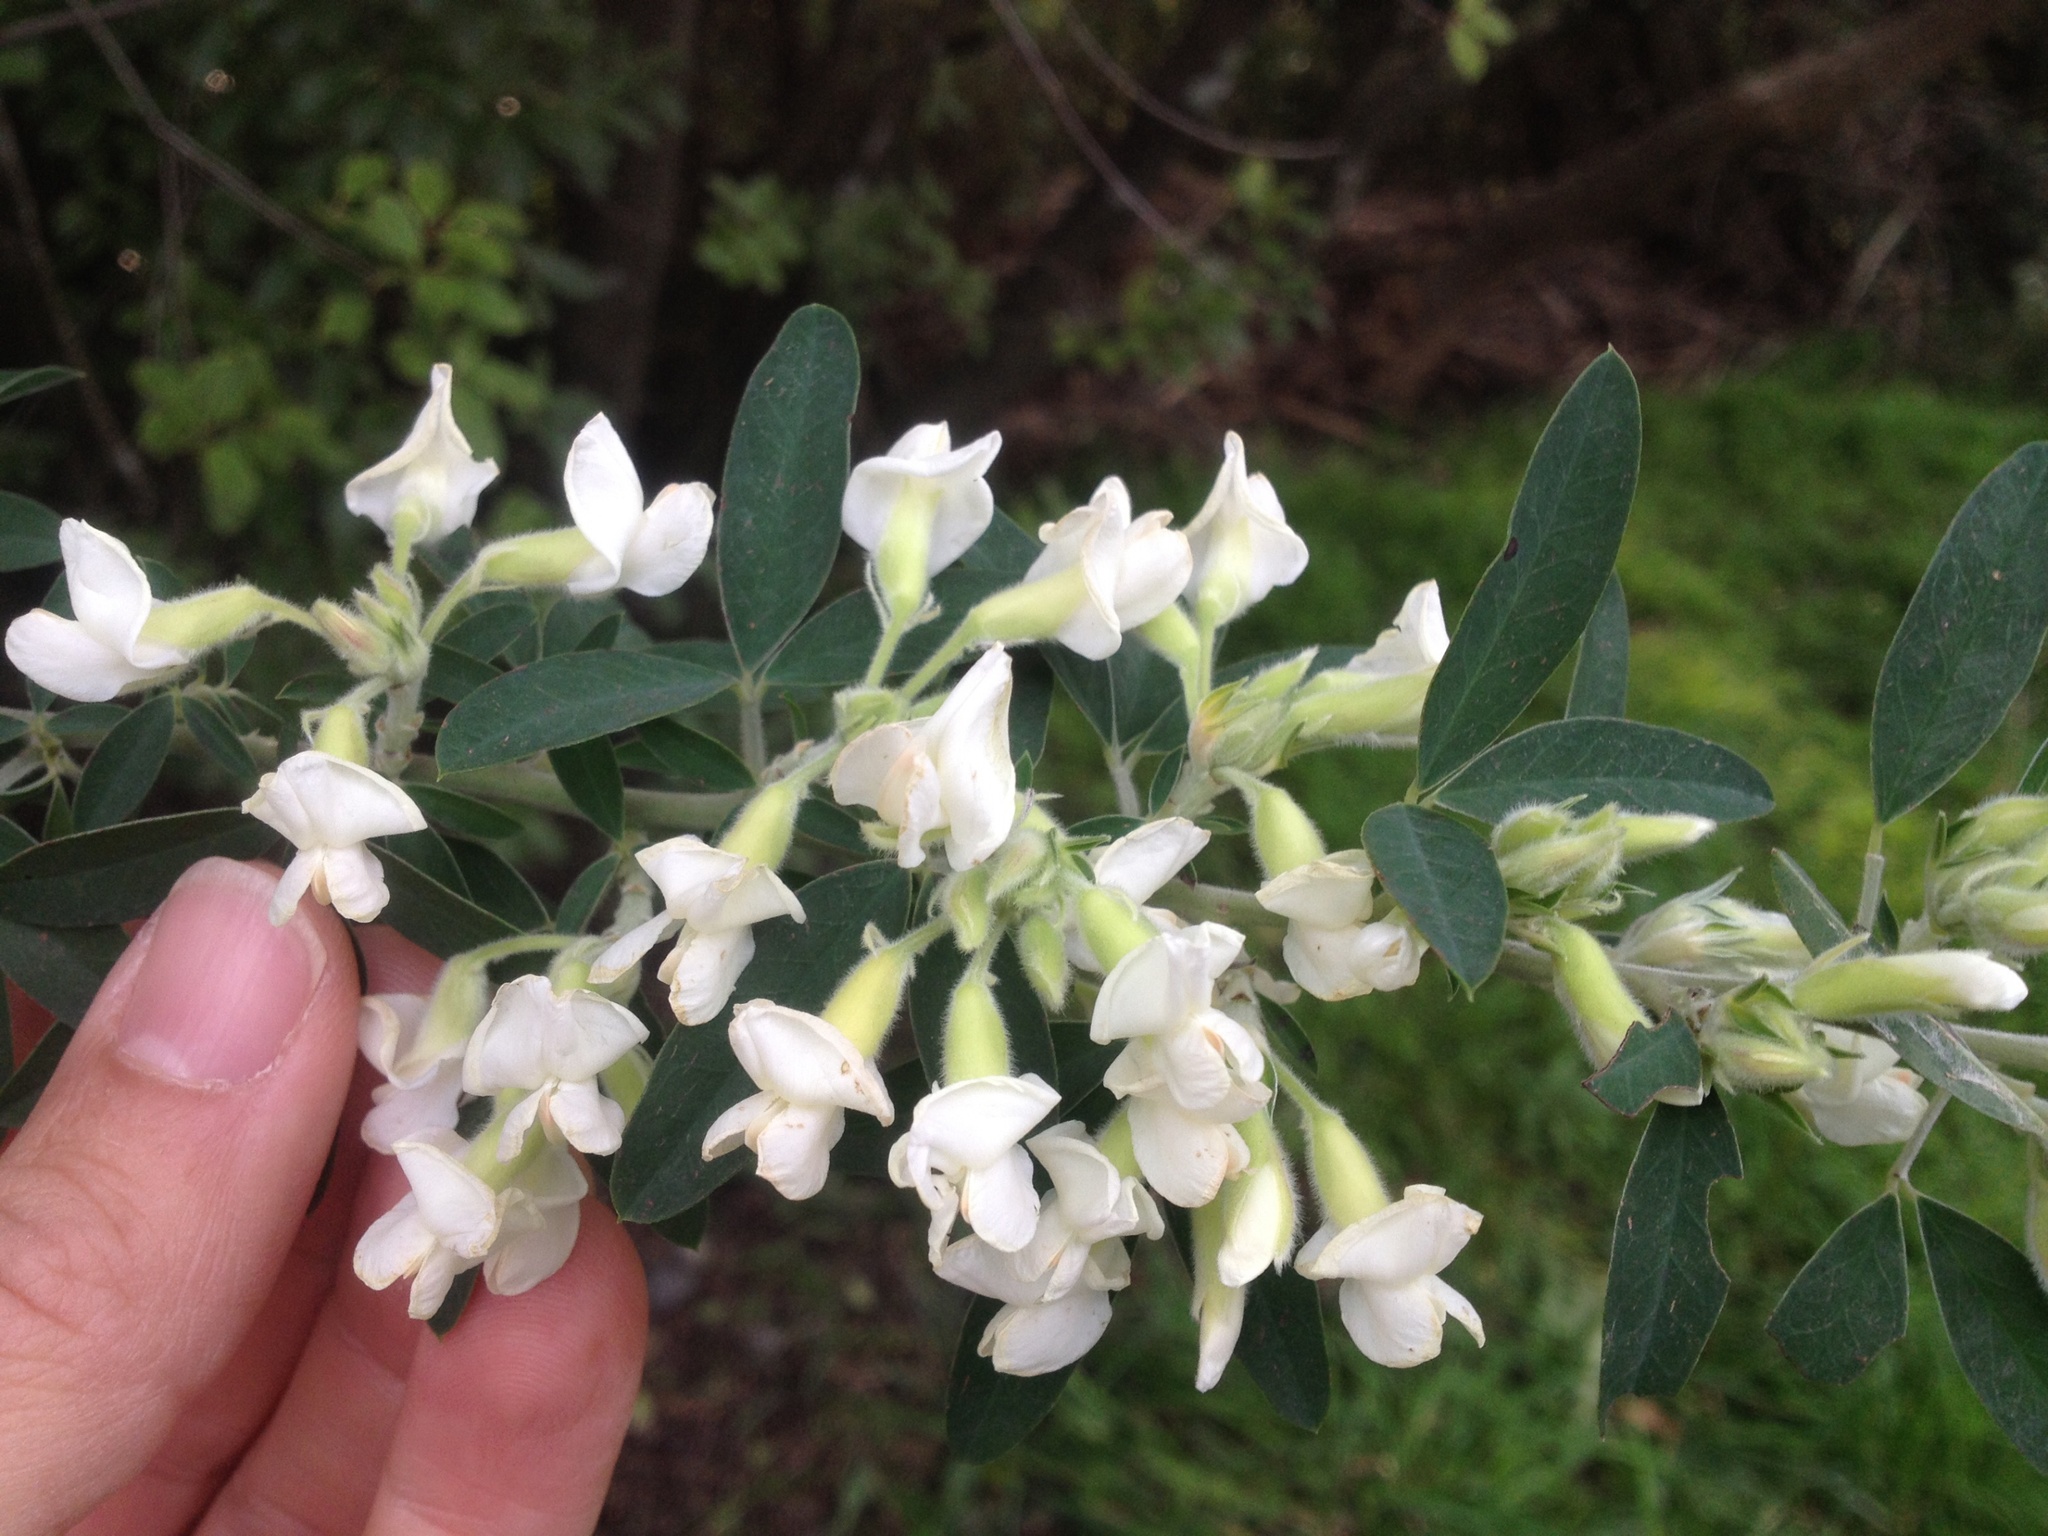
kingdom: Plantae
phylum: Tracheophyta
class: Magnoliopsida
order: Fabales
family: Fabaceae
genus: Chamaecytisus
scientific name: Chamaecytisus prolifer
